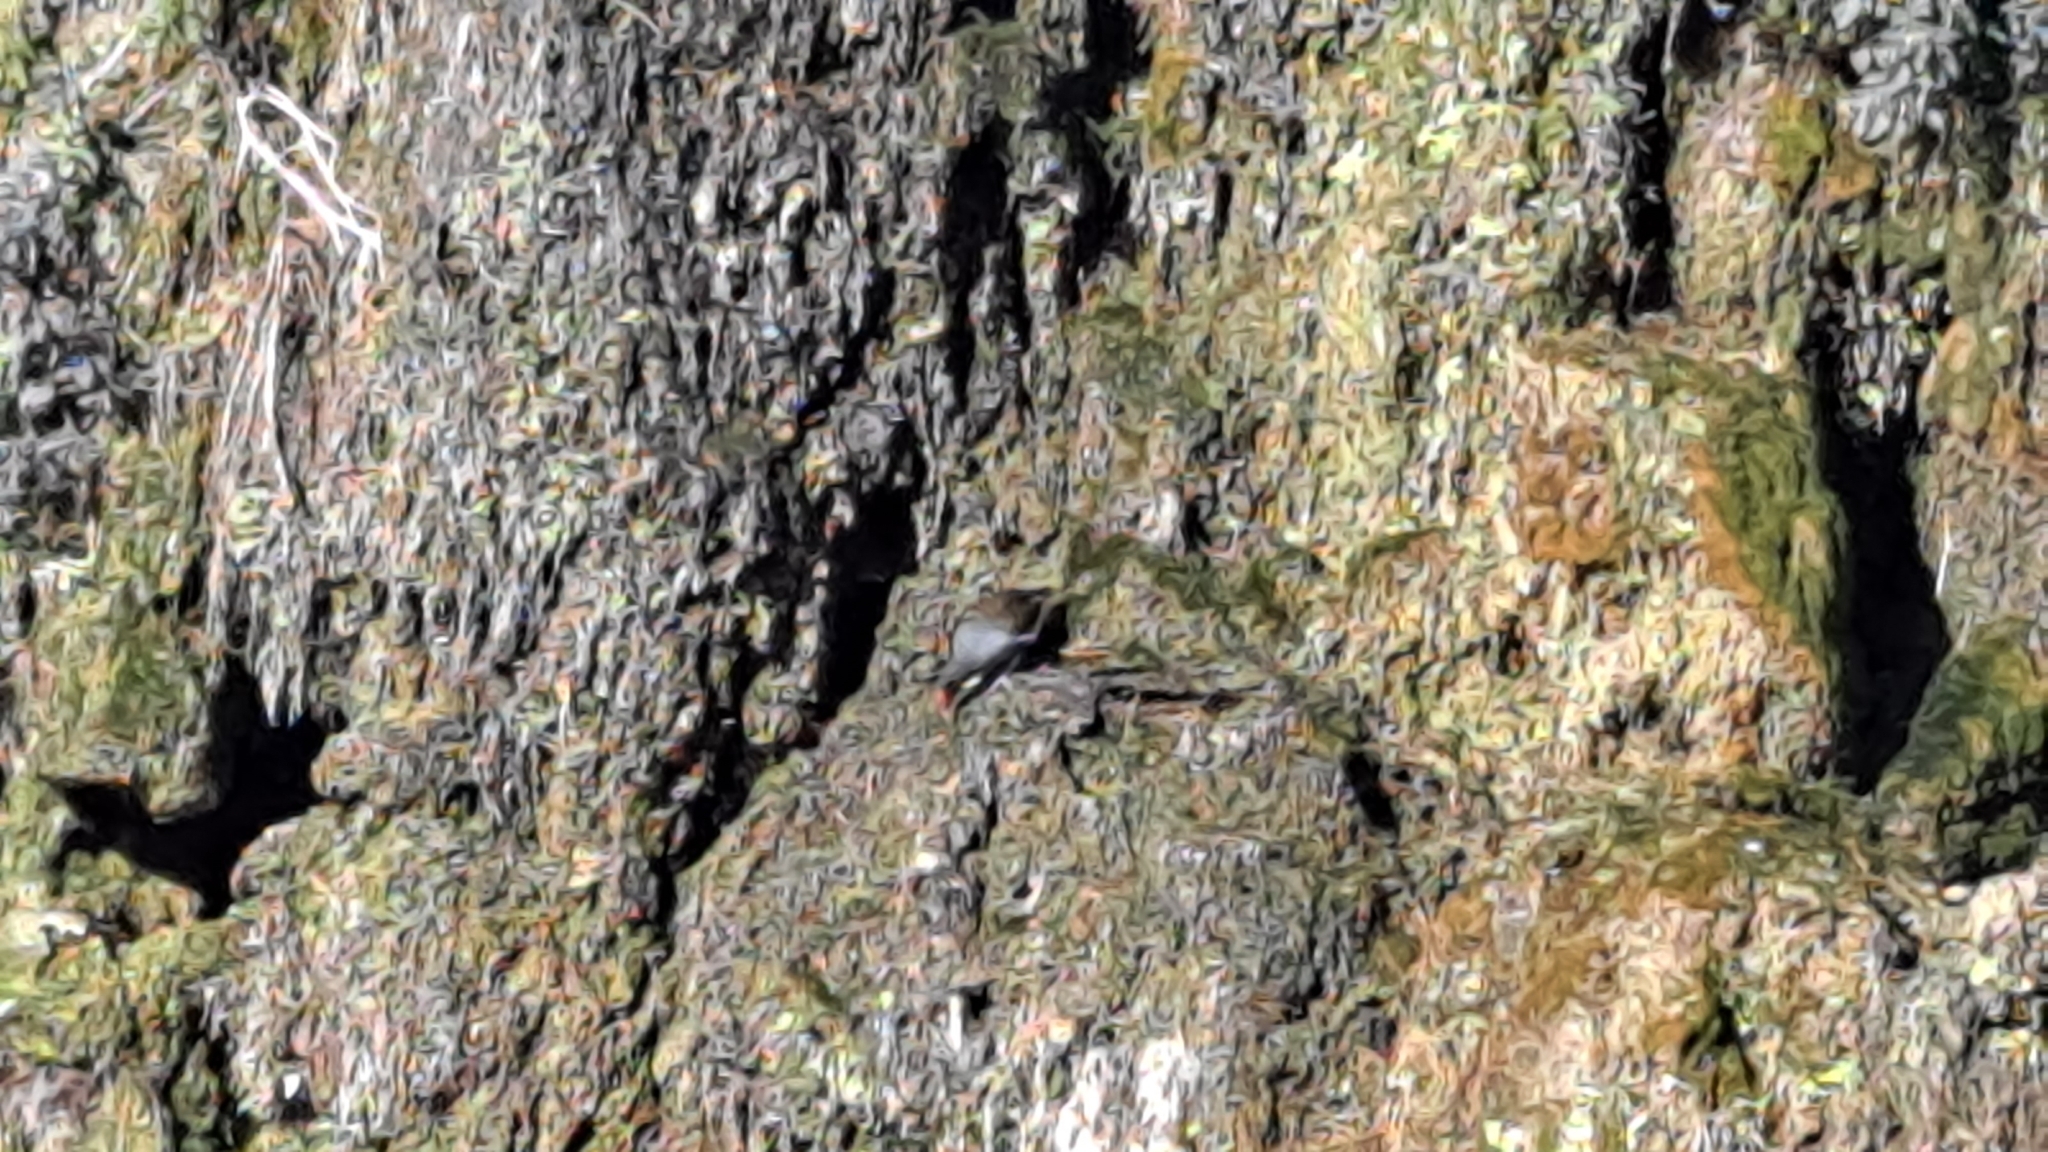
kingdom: Animalia
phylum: Chordata
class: Aves
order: Gruiformes
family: Rallidae
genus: Gallinula
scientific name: Gallinula chloropus
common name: Common moorhen
